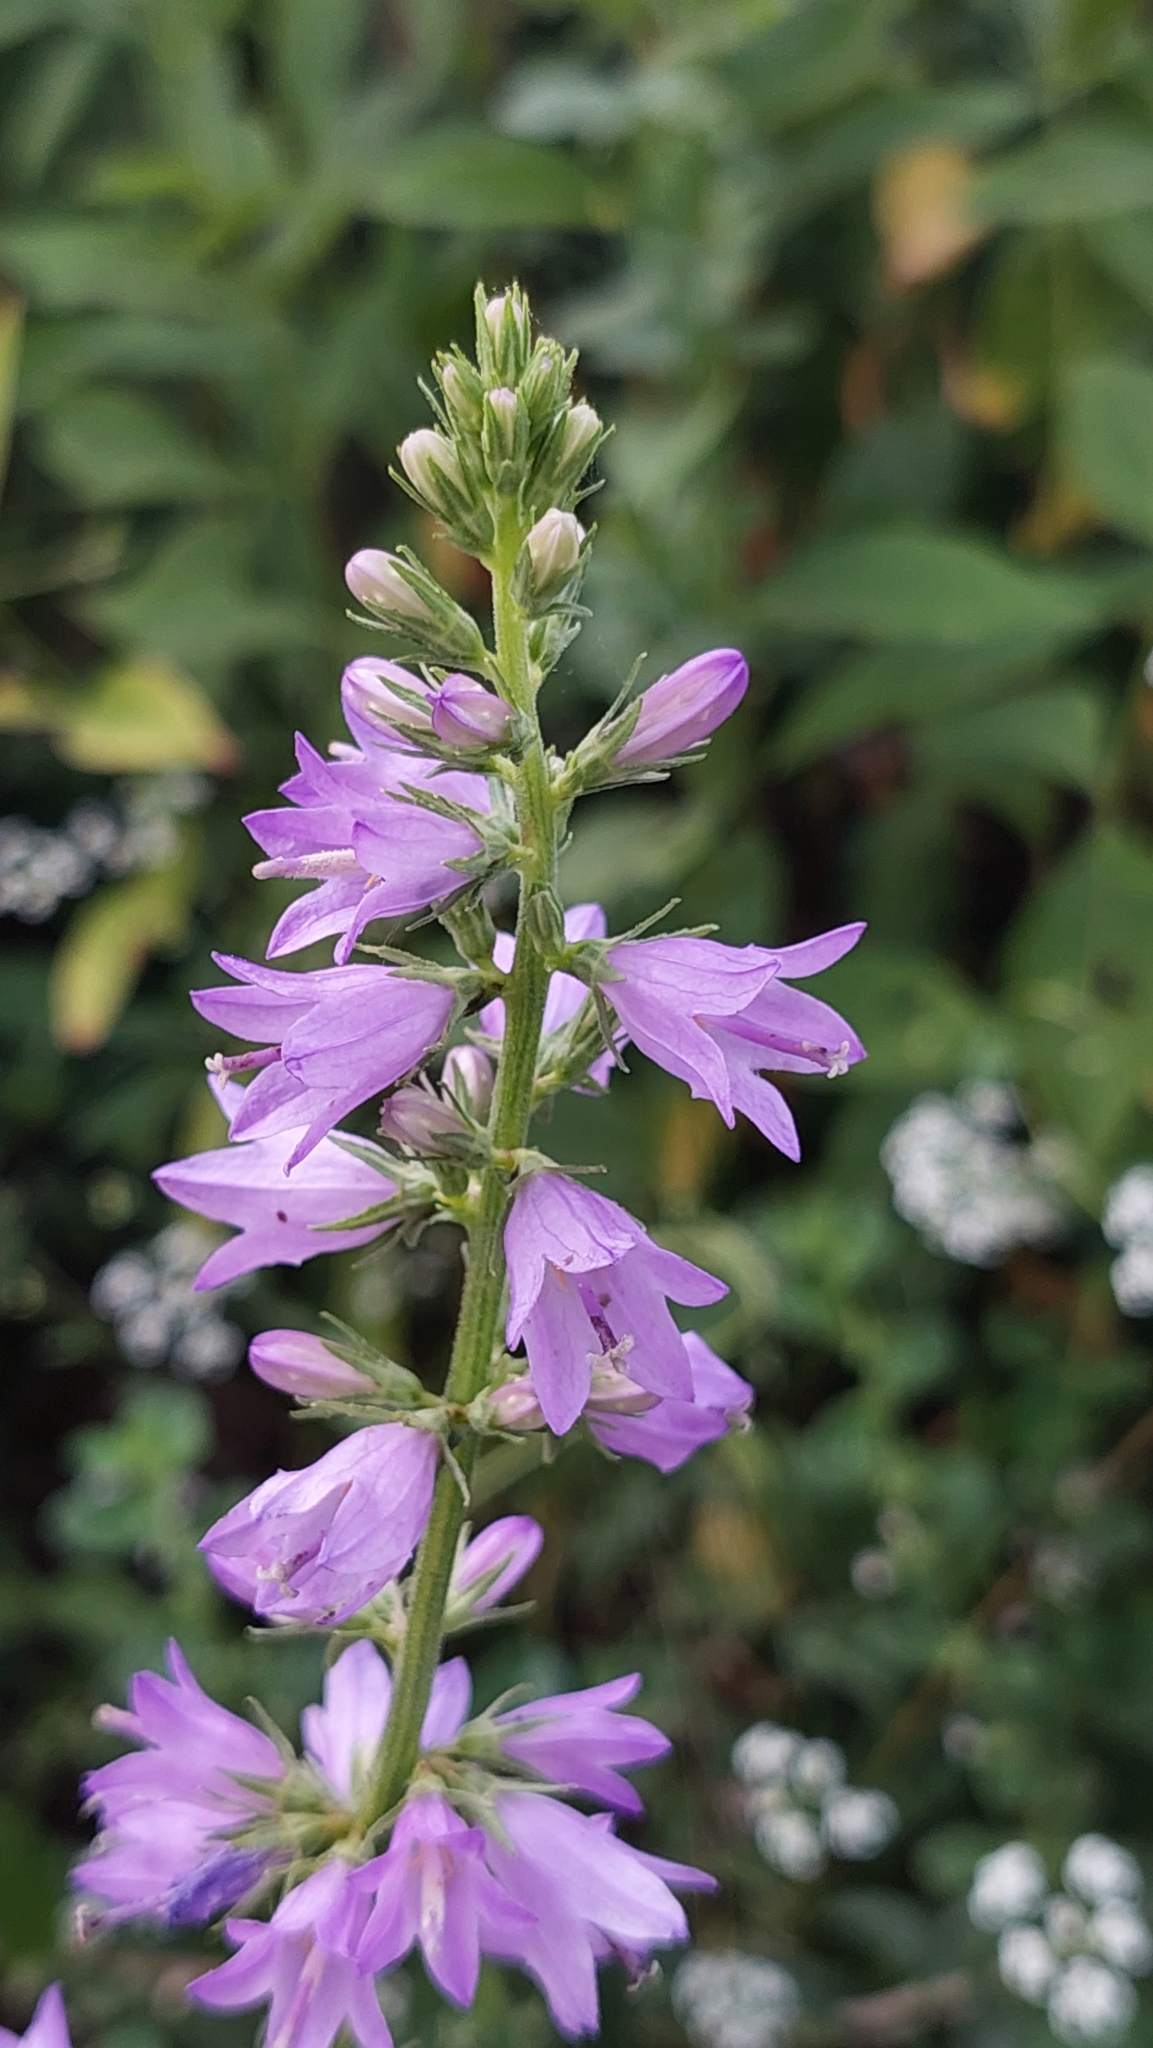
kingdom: Plantae
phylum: Tracheophyta
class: Magnoliopsida
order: Asterales
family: Campanulaceae
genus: Campanula
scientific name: Campanula bononiensis
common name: Pale bellflower
